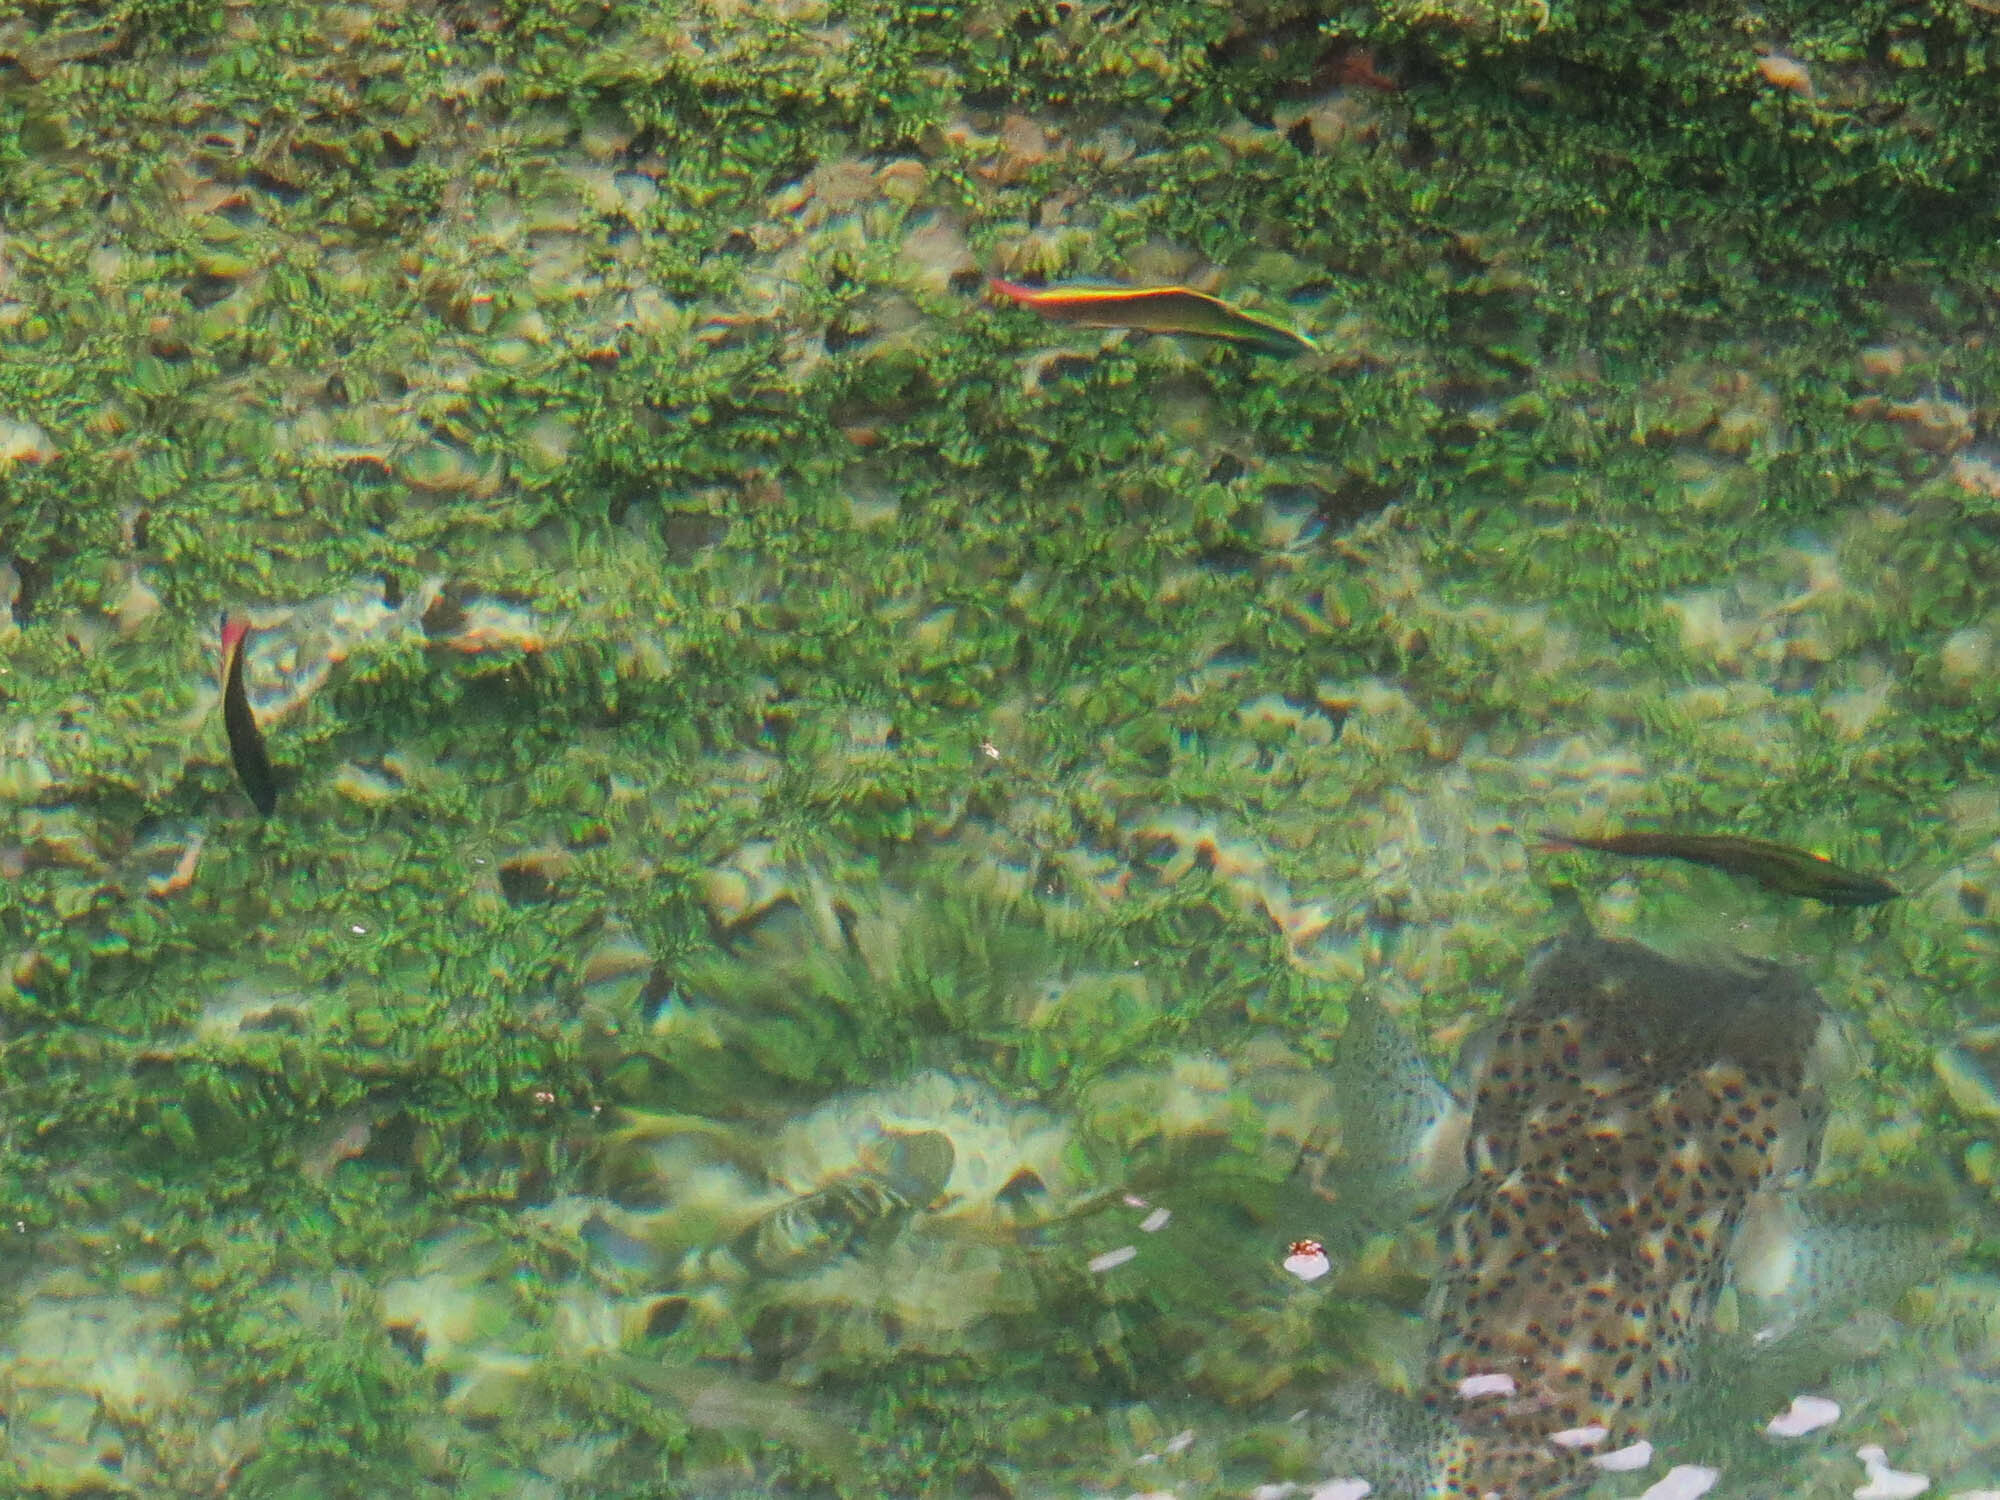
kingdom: Animalia
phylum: Chordata
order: Perciformes
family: Labridae
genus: Thalassoma
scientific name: Thalassoma lucasanum
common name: Cortez rainbow wrasse
